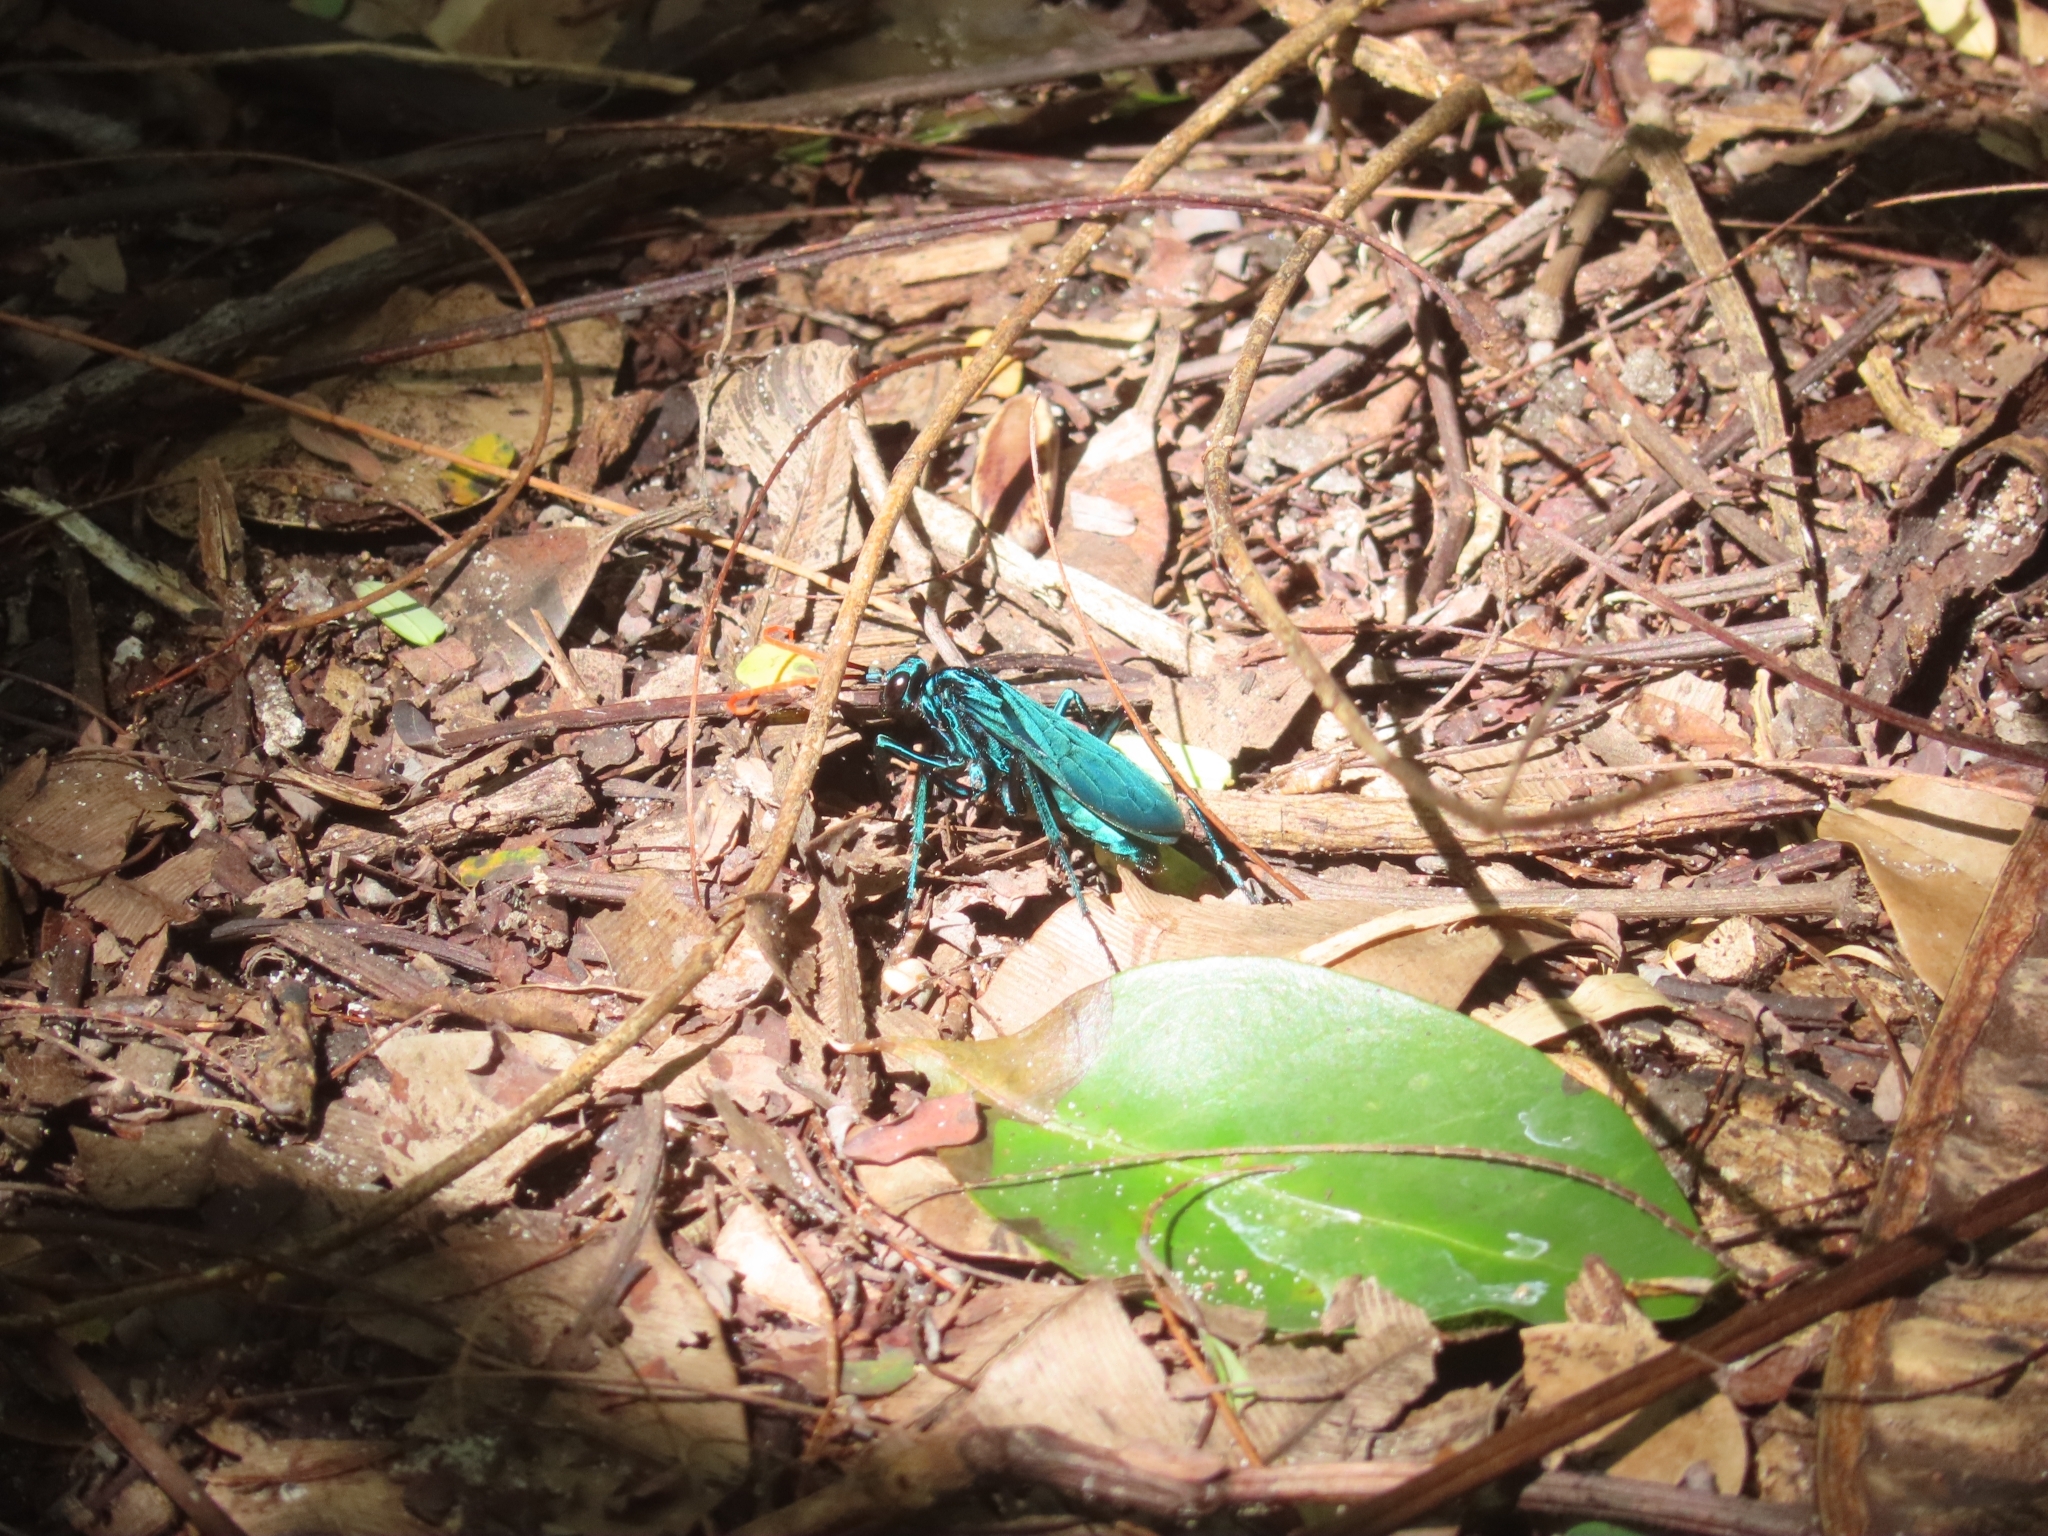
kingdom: Animalia
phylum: Arthropoda
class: Insecta
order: Hymenoptera
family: Pompilidae
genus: Pepsis
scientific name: Pepsis ruficornis
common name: Orange-horned tarantula hawk
